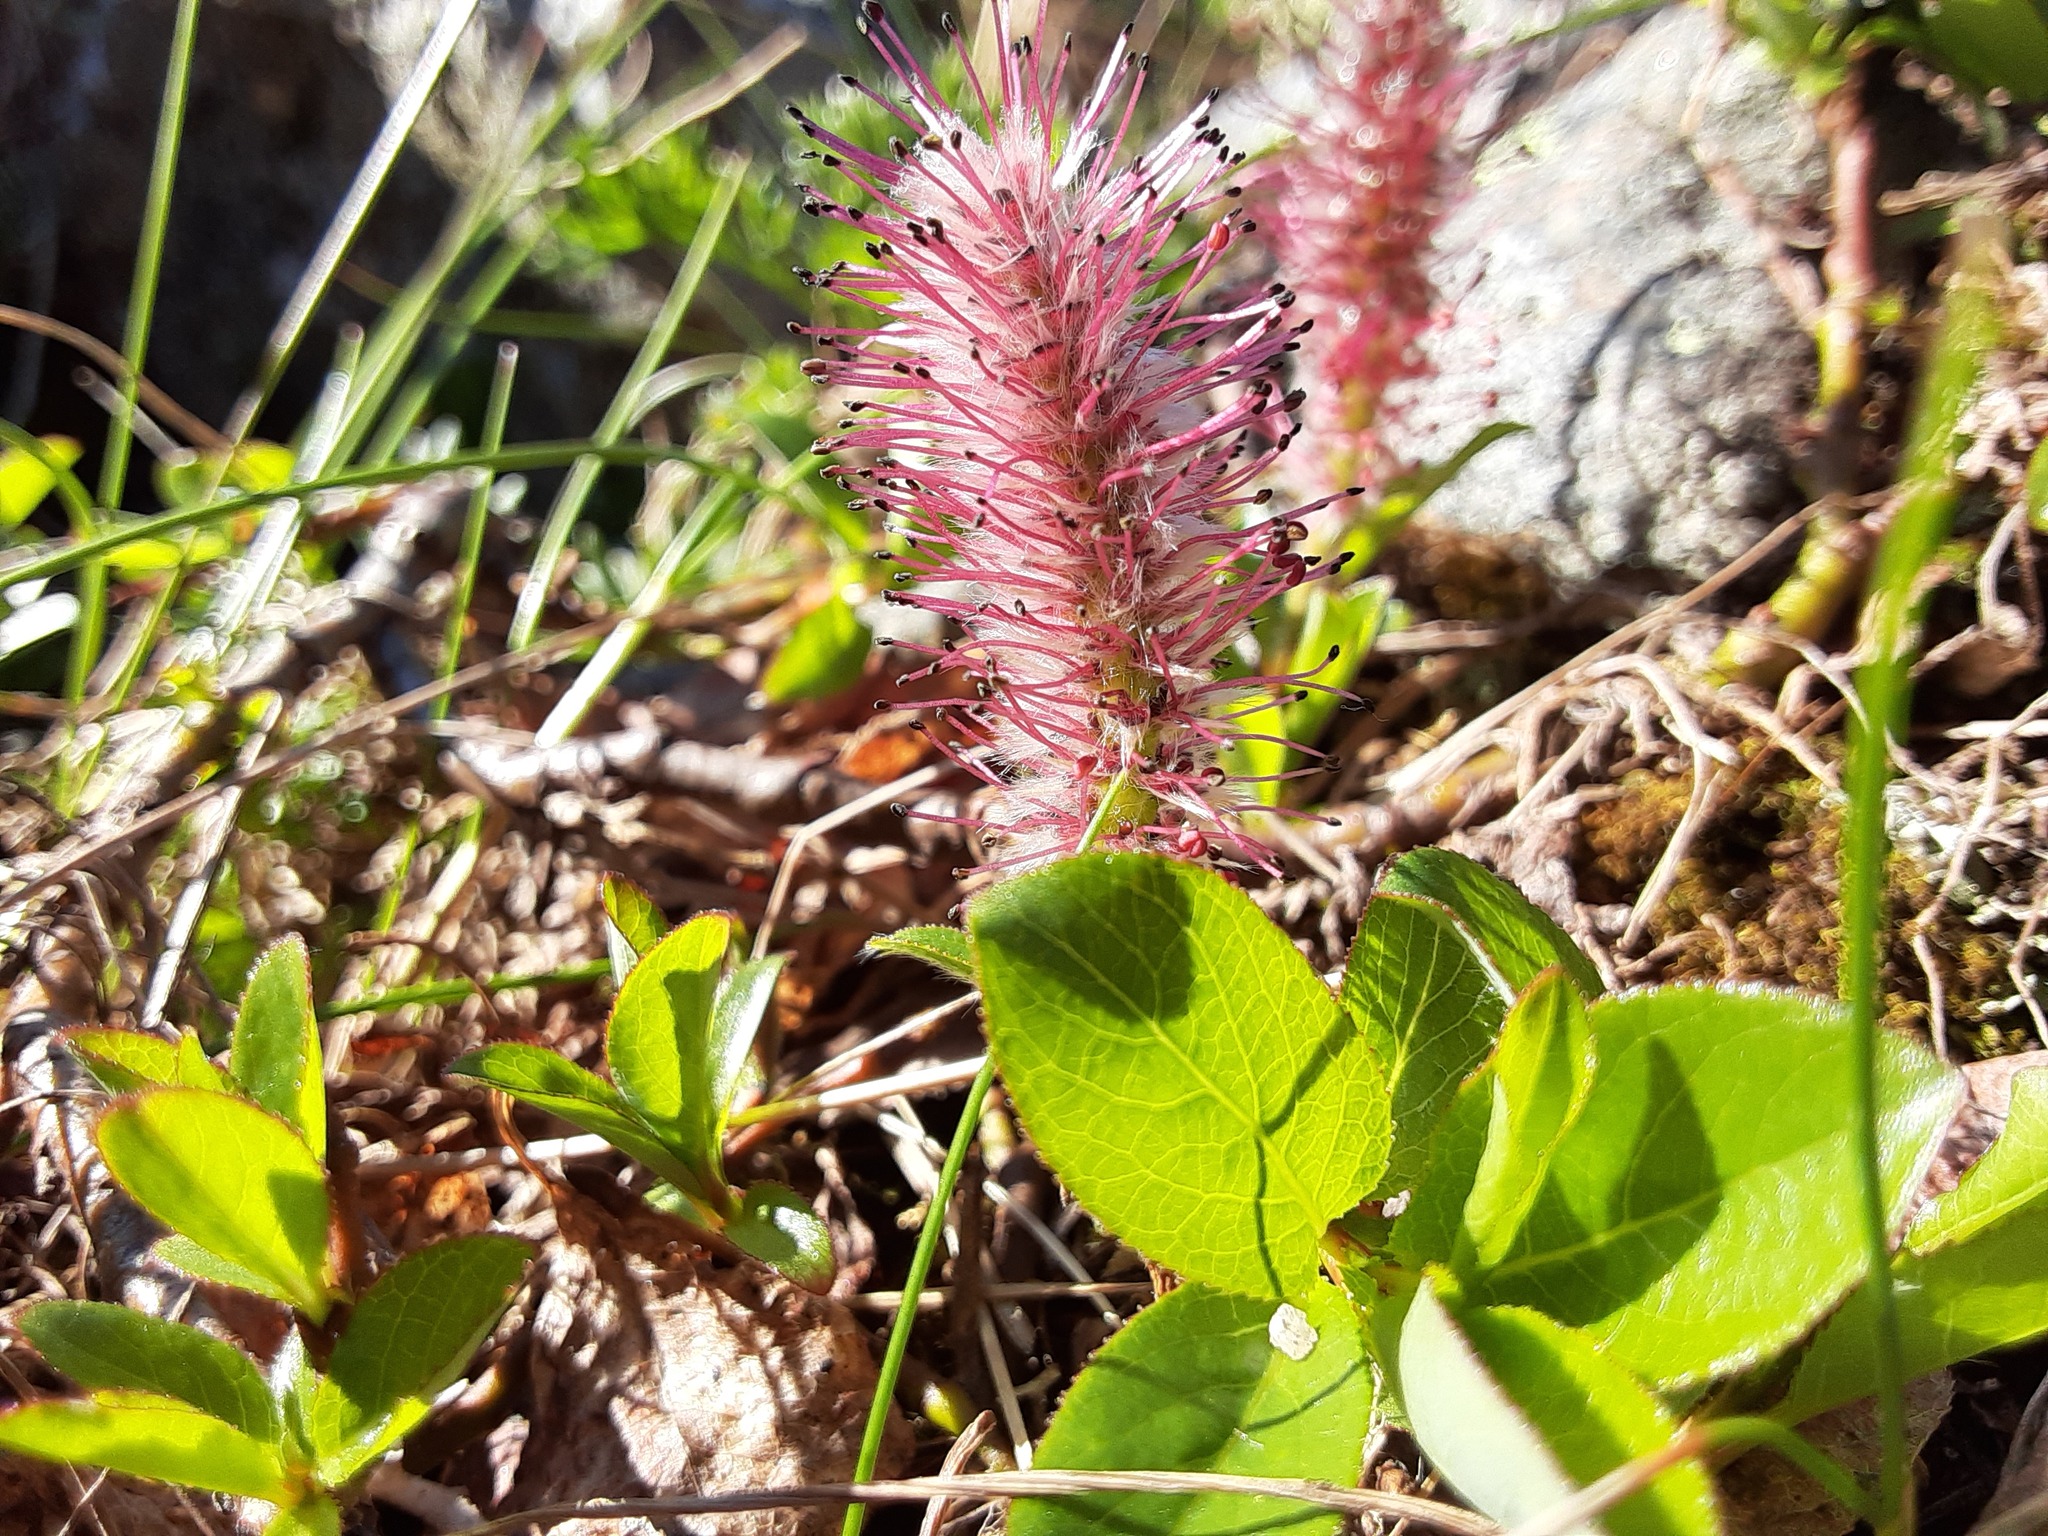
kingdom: Plantae
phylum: Tracheophyta
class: Magnoliopsida
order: Malpighiales
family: Salicaceae
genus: Salix
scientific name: Salix chamissonis
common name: Chamisso willow
